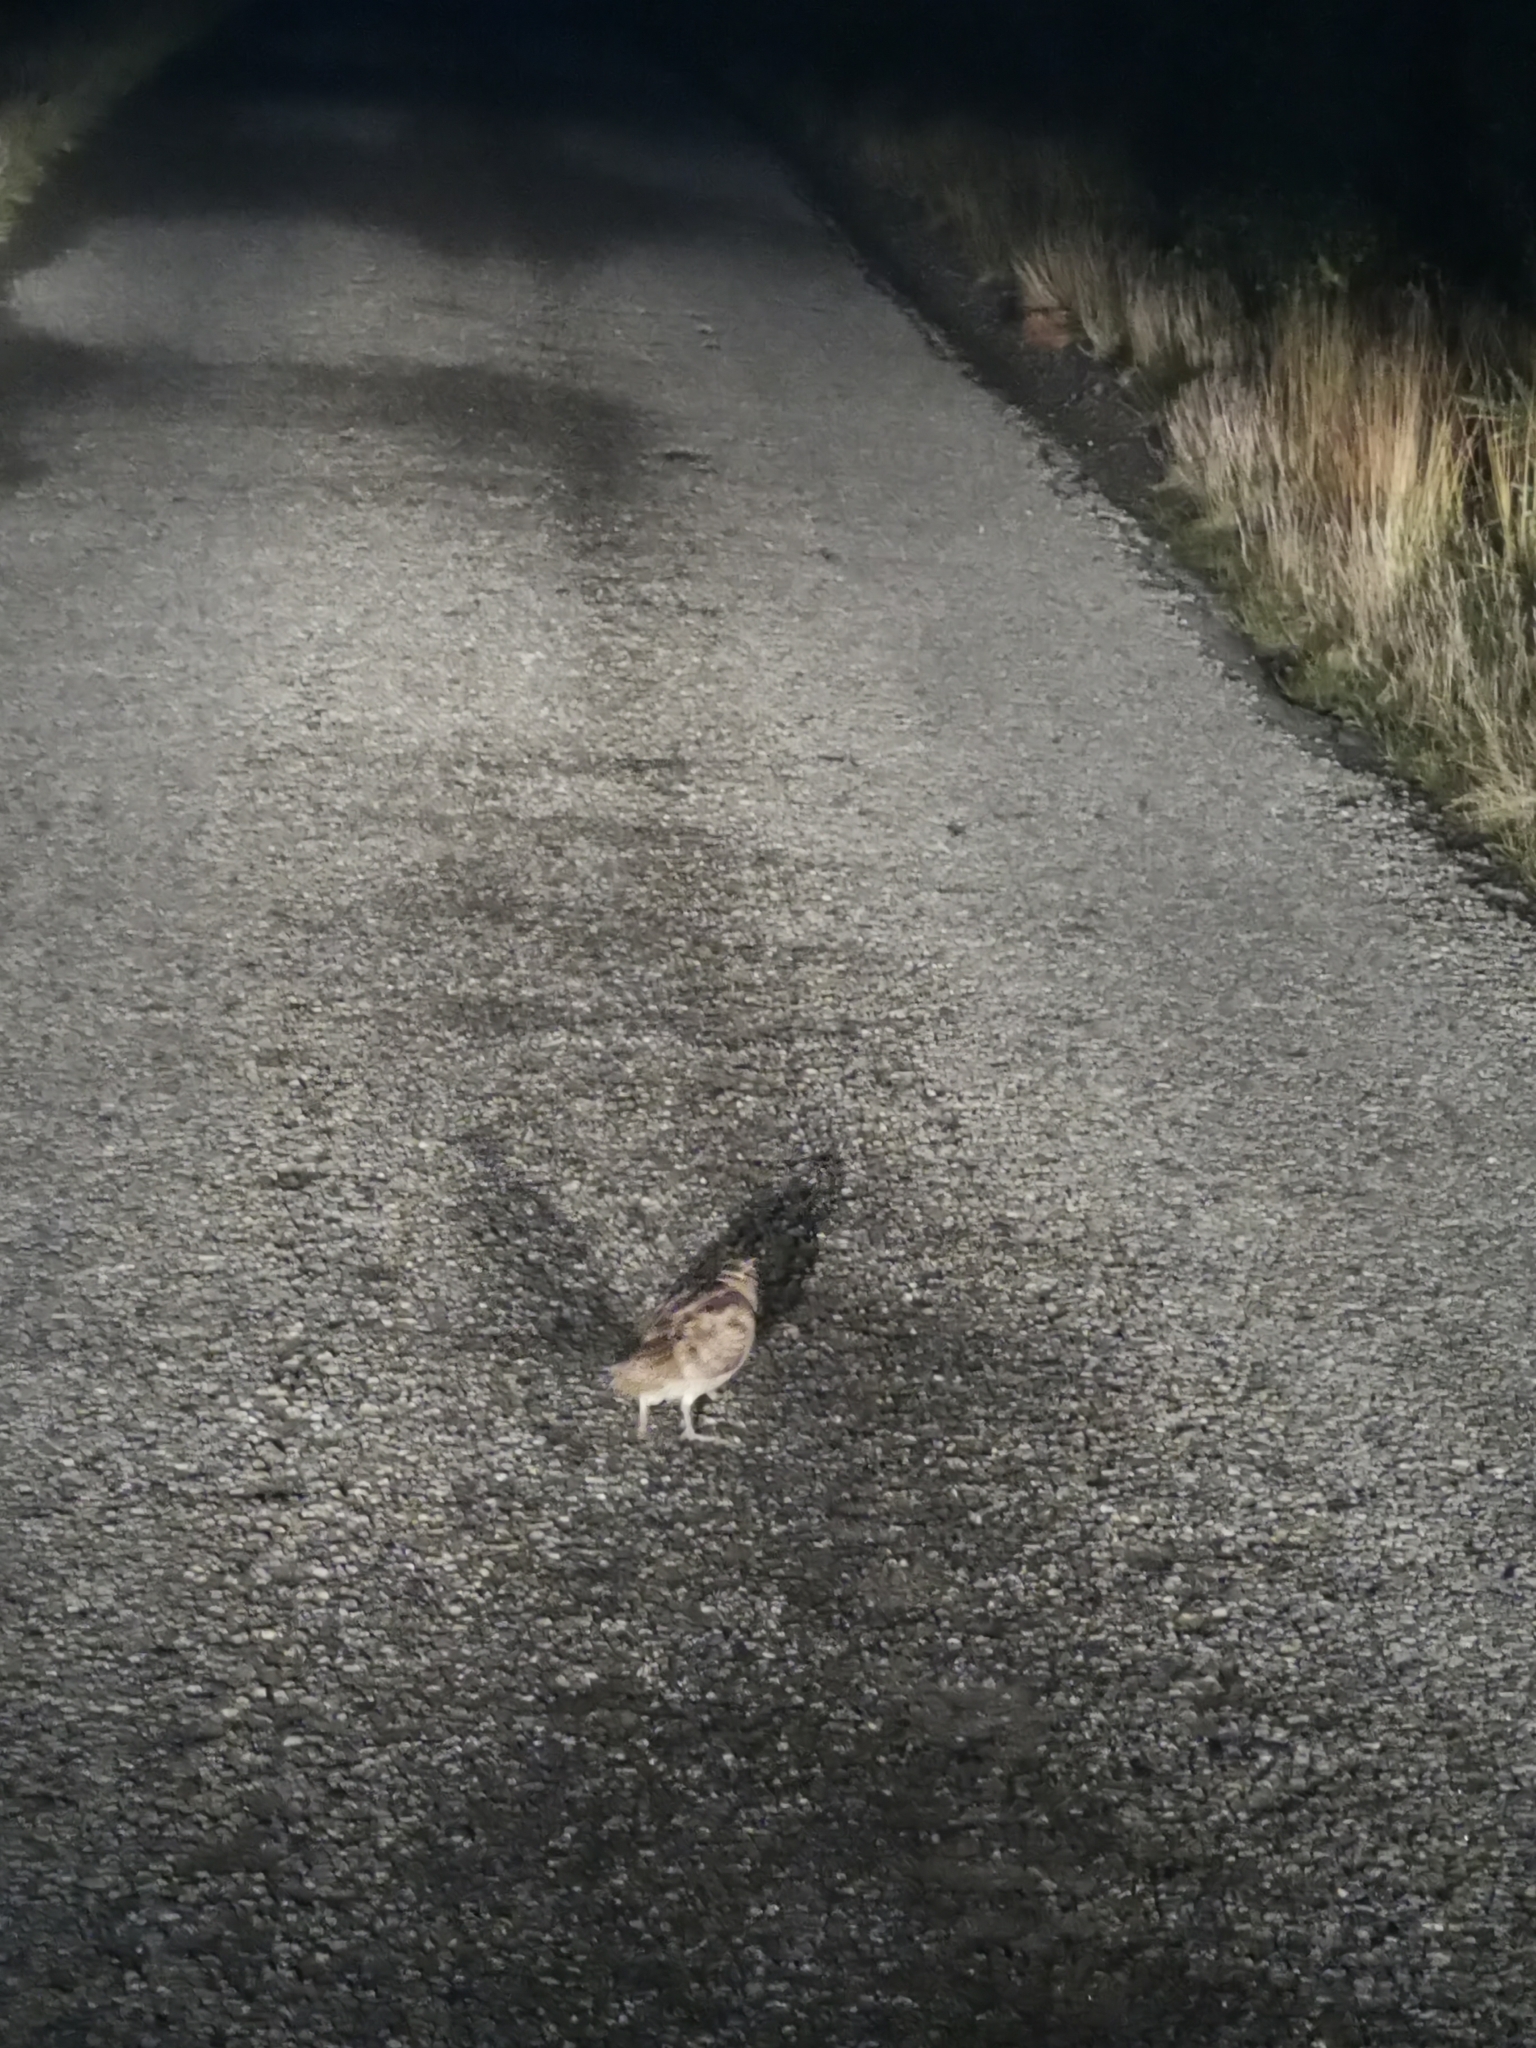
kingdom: Animalia
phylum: Chordata
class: Aves
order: Charadriiformes
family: Scolopacidae
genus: Scolopax
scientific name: Scolopax rusticola
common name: Eurasian woodcock
